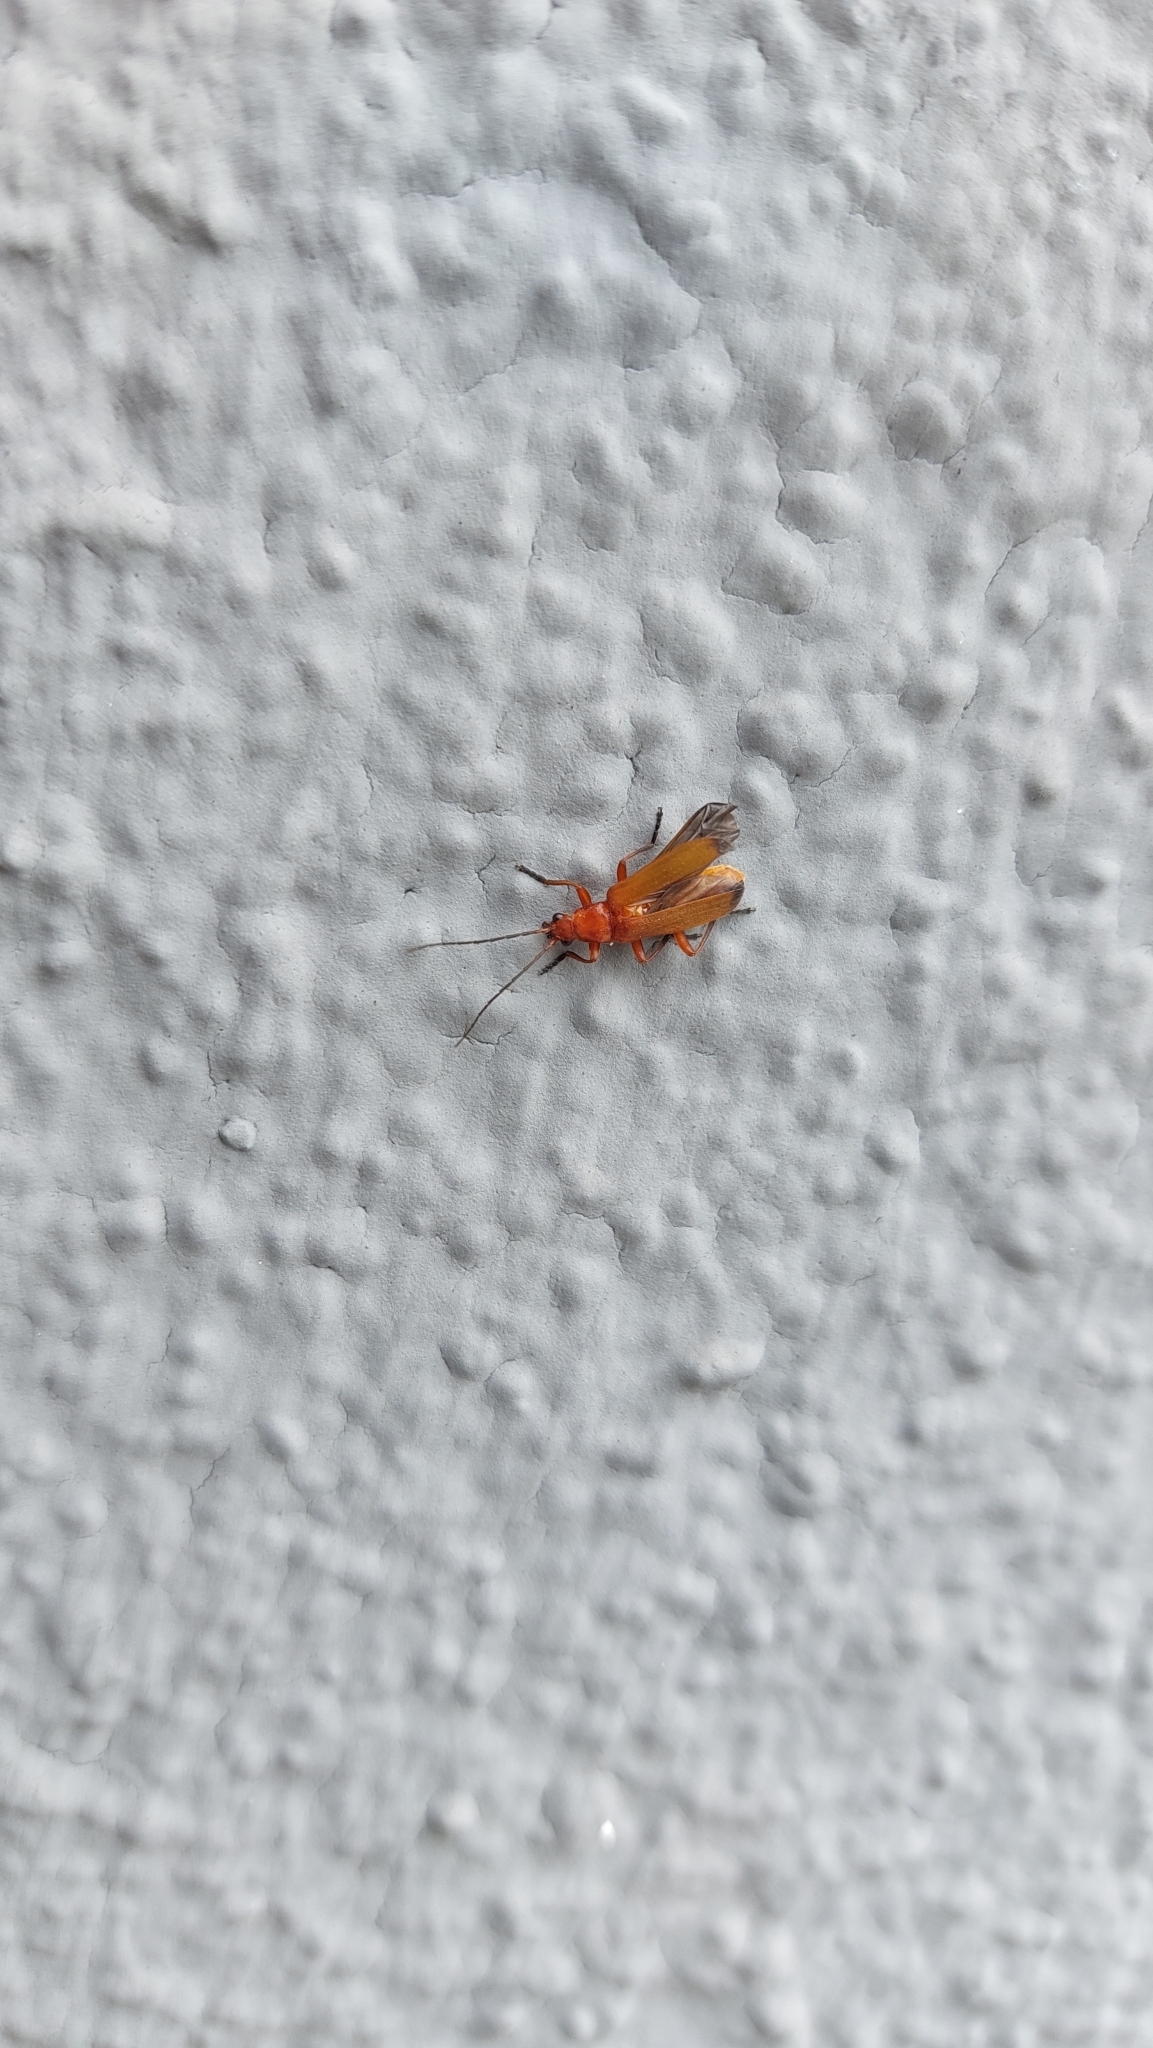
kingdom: Animalia
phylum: Arthropoda
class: Insecta
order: Coleoptera
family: Cantharidae
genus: Rhagonycha
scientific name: Rhagonycha fulva
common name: Common red soldier beetle
